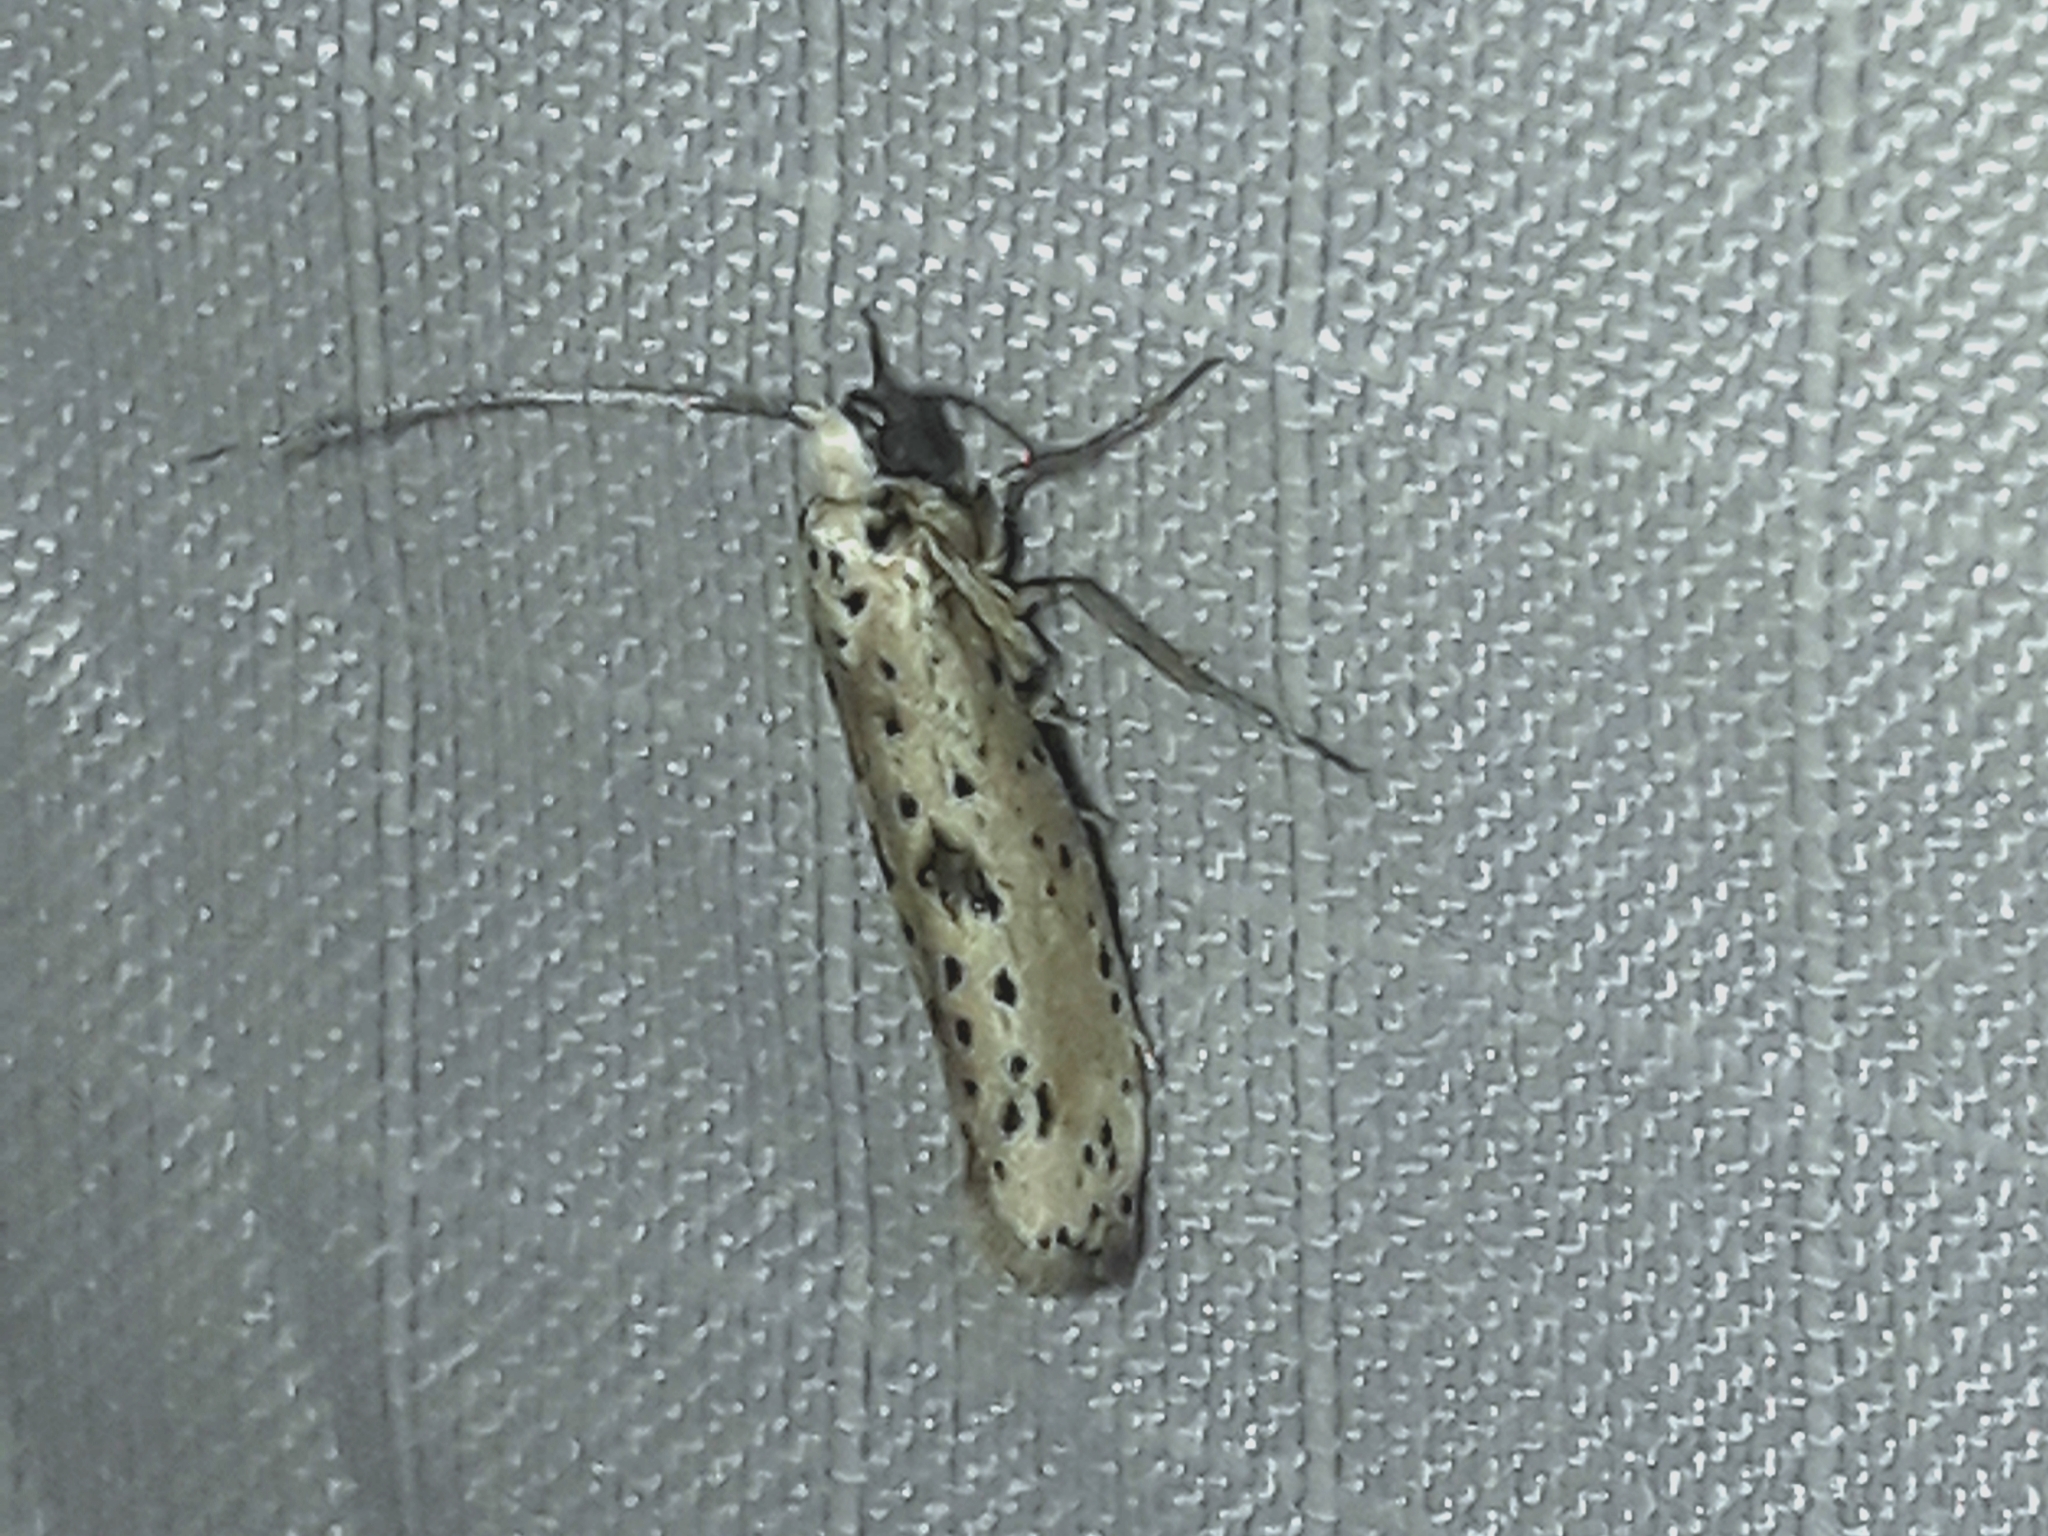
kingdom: Animalia
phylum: Arthropoda
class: Insecta
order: Lepidoptera
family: Yponomeutidae
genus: Yponomeuta
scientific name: Yponomeuta plumbella
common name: Black-tipped ermine
